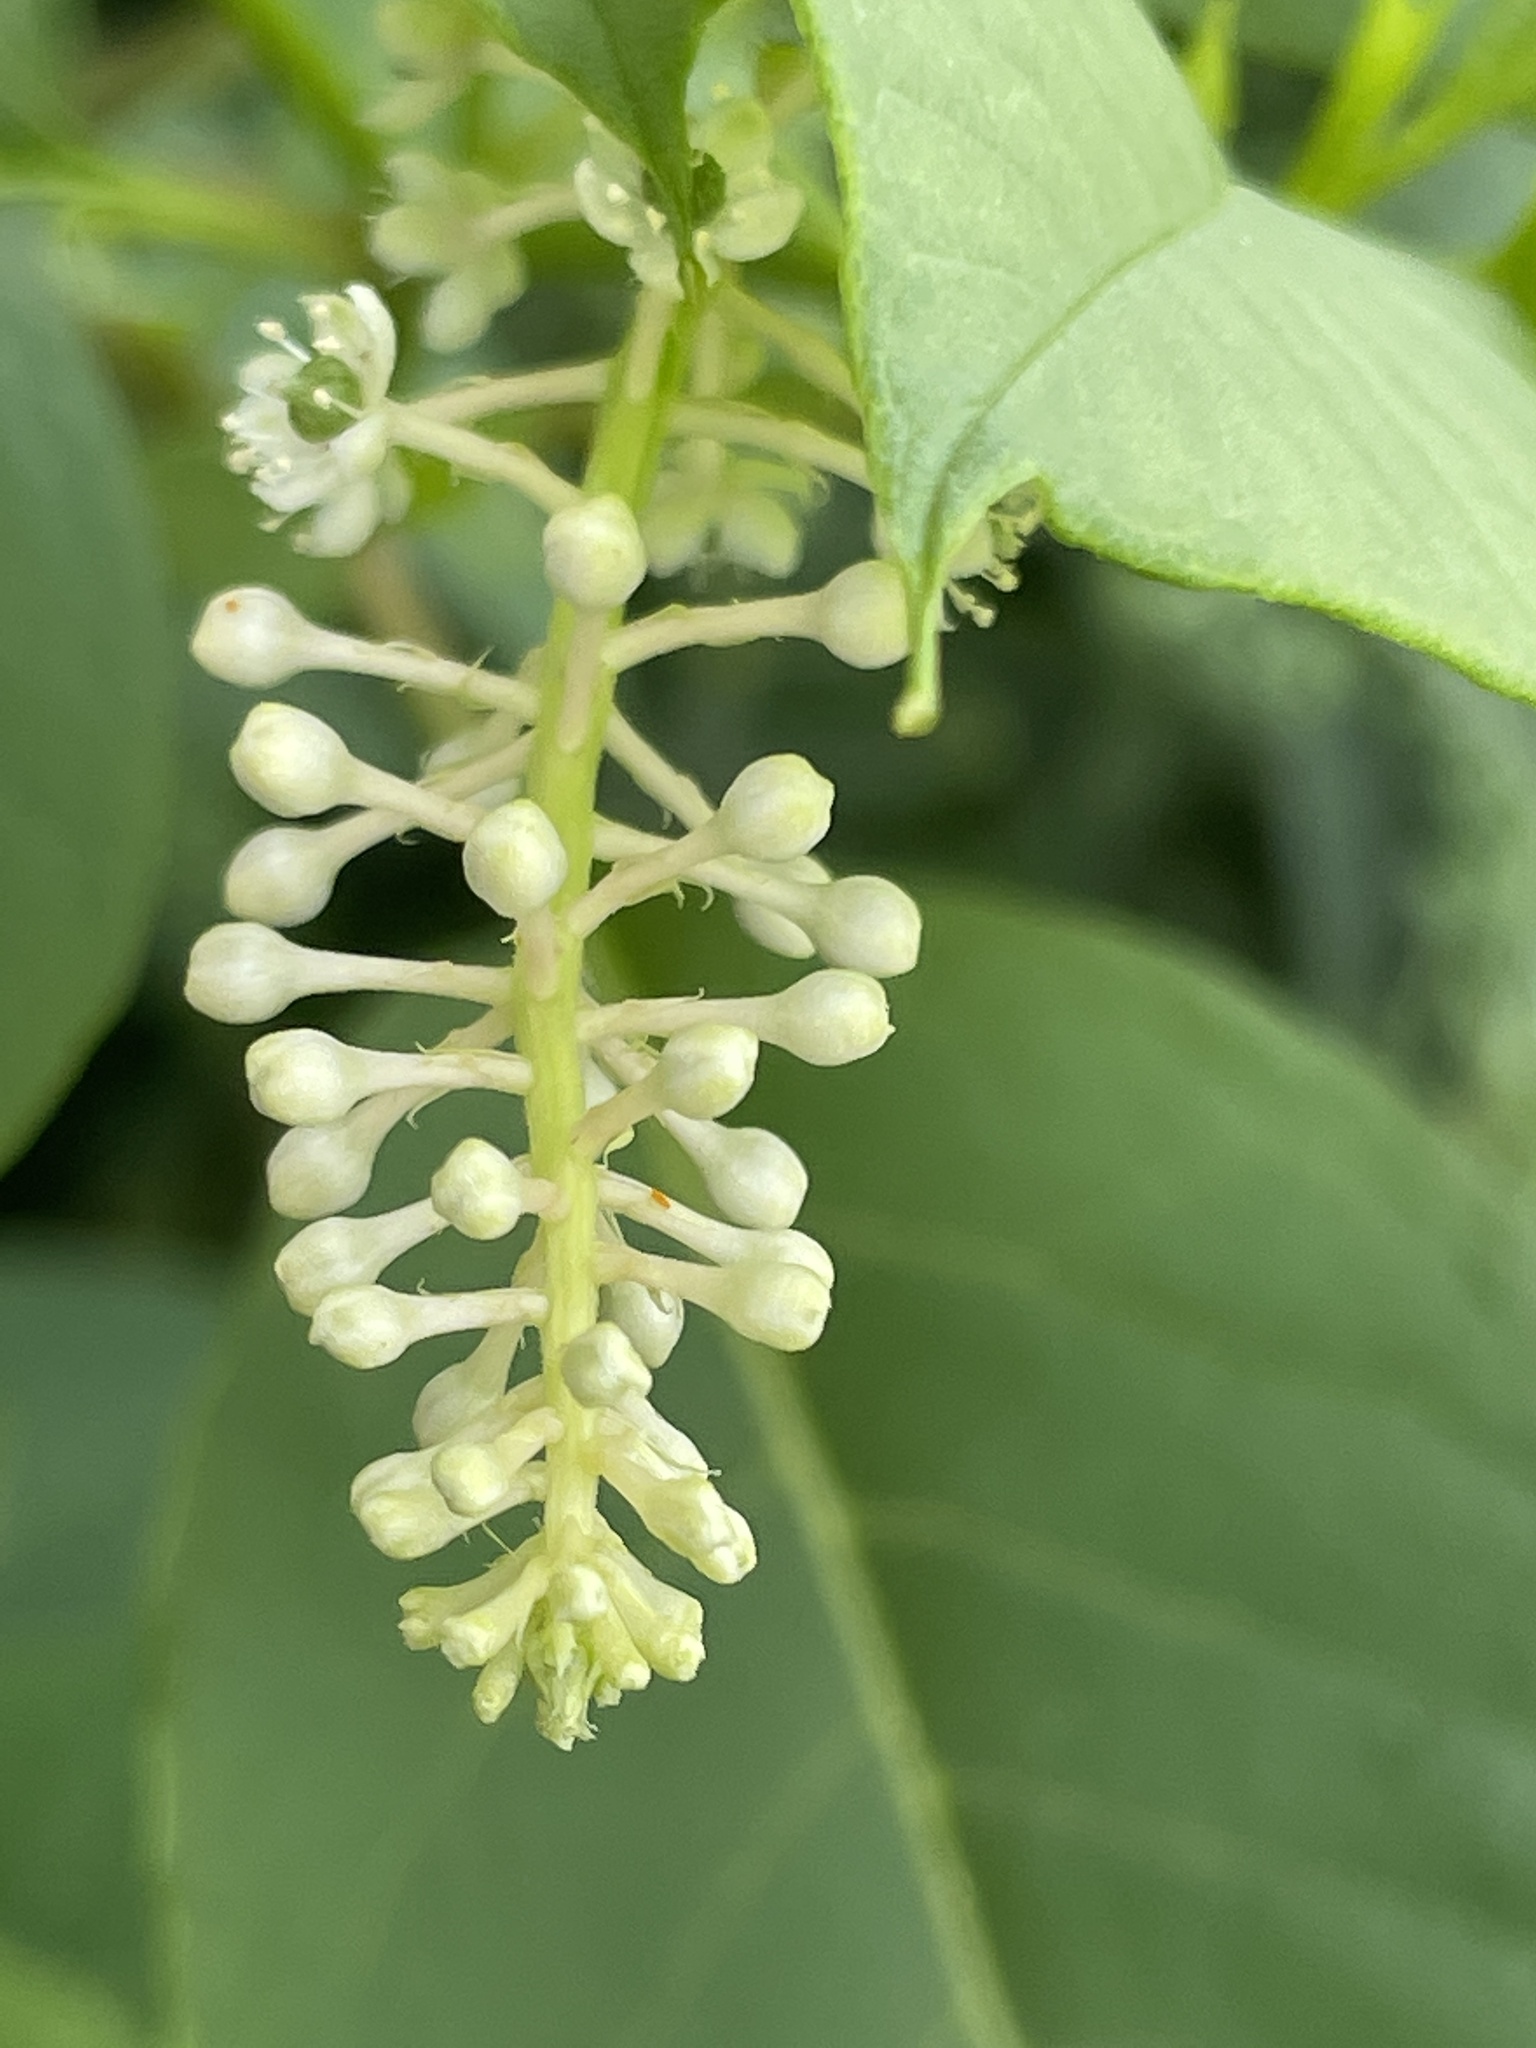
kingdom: Plantae
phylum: Tracheophyta
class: Magnoliopsida
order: Caryophyllales
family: Phytolaccaceae
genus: Phytolacca
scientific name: Phytolacca americana
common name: American pokeweed
